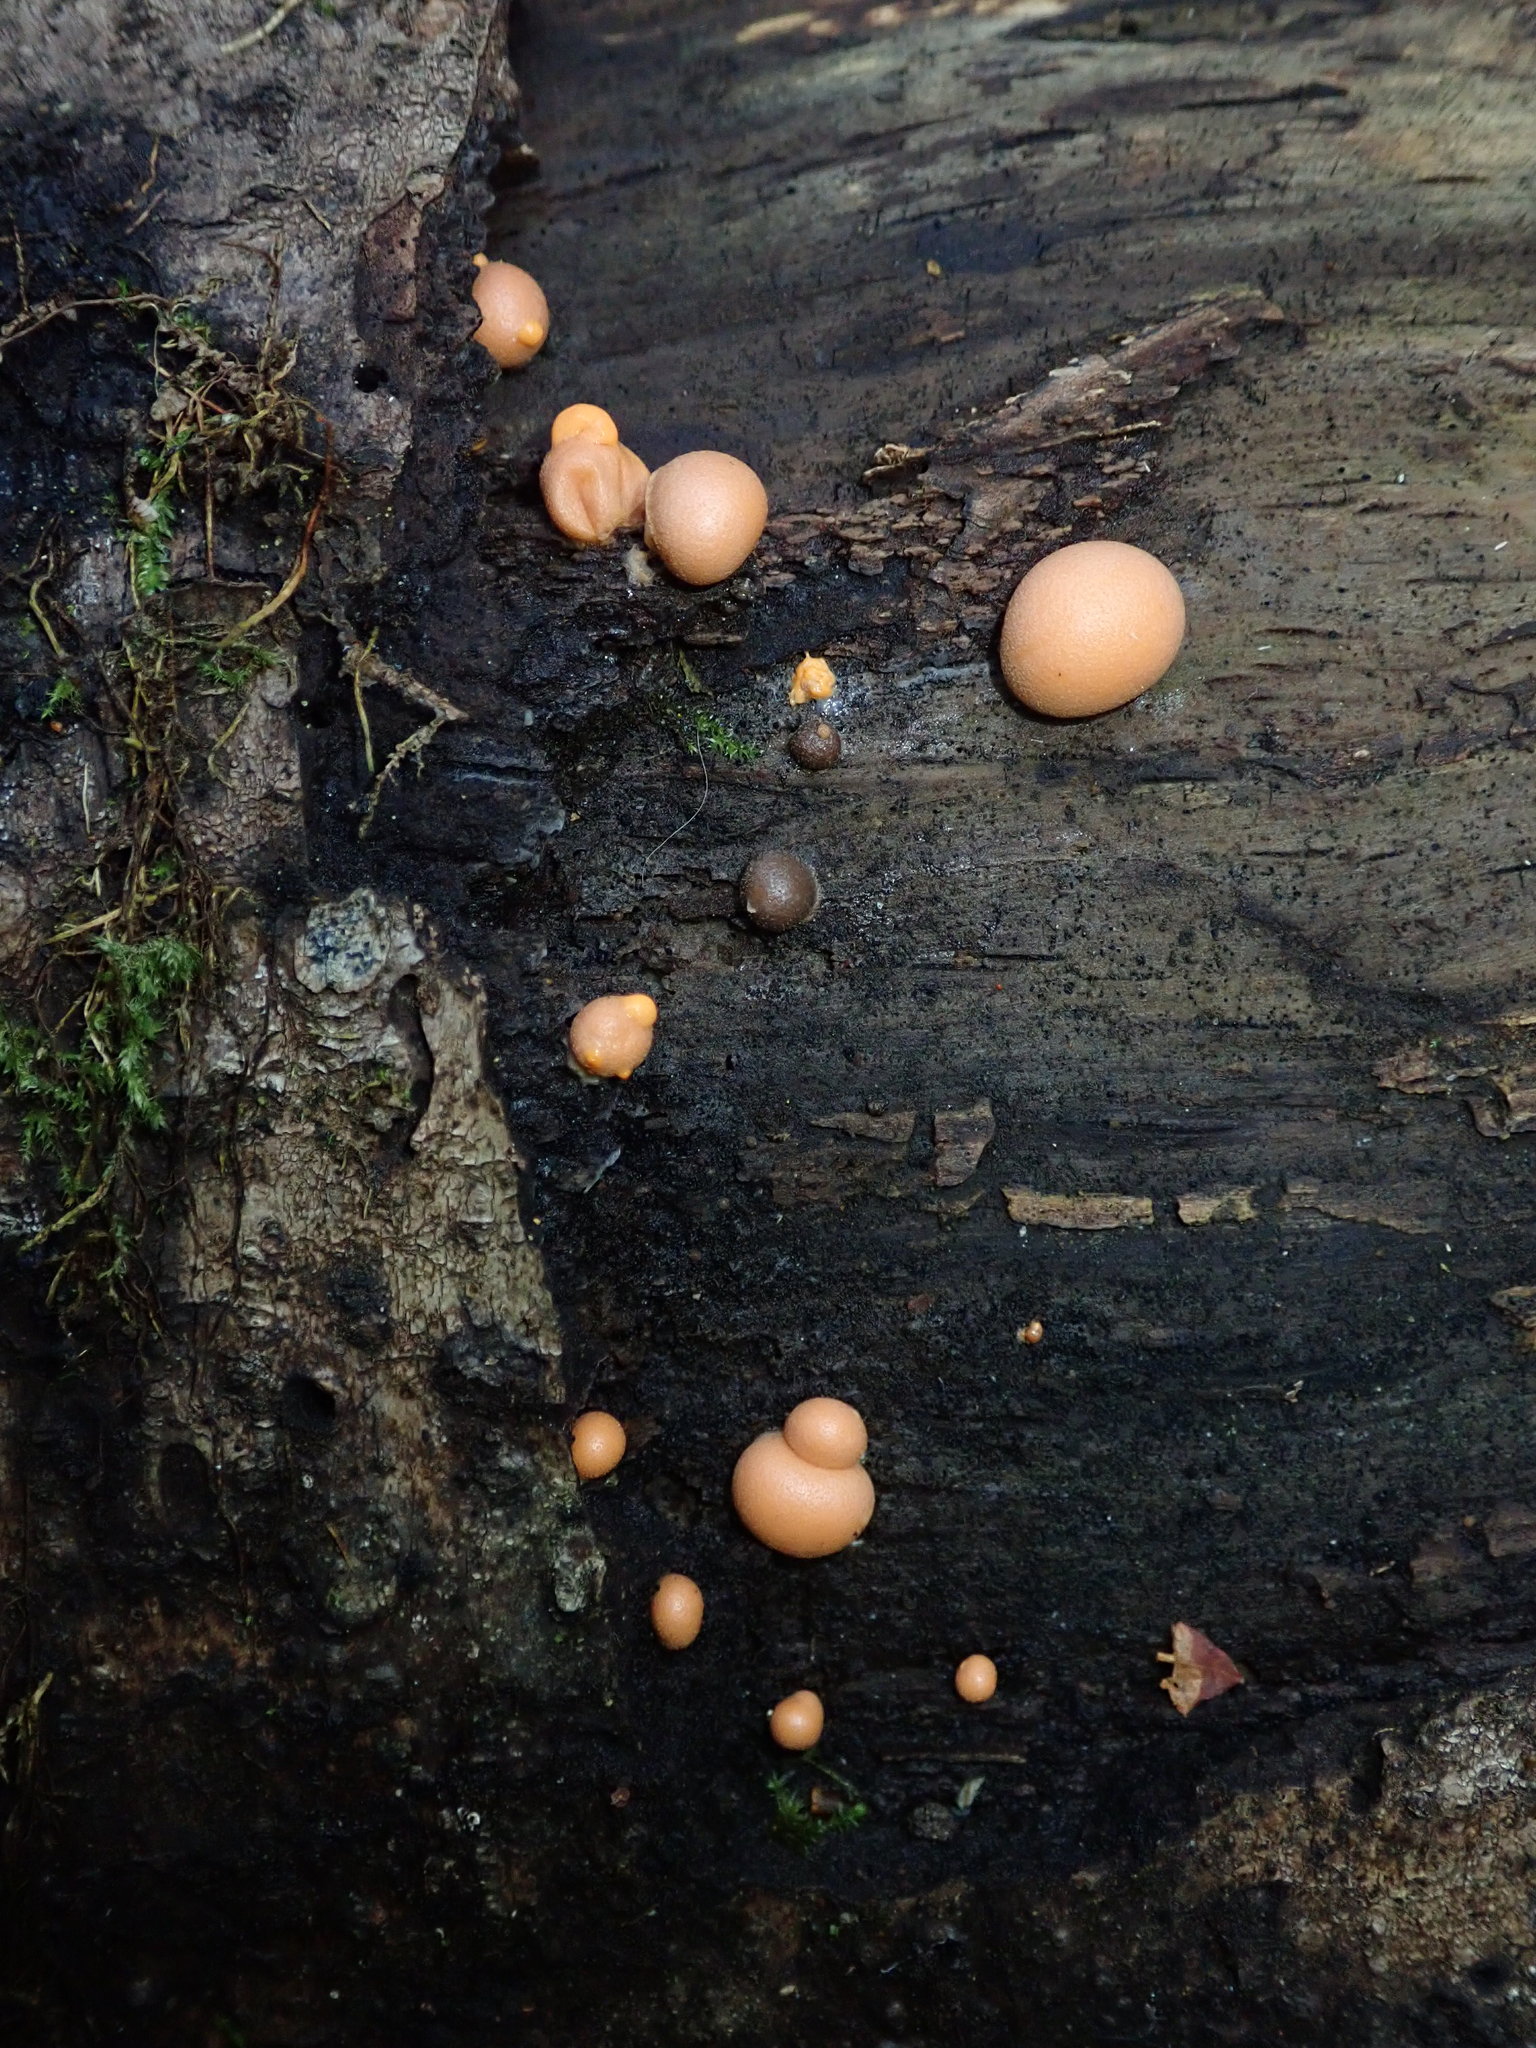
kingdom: Protozoa
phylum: Mycetozoa
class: Myxomycetes
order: Cribrariales
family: Tubiferaceae
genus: Lycogala
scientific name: Lycogala epidendrum
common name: Wolf's milk
